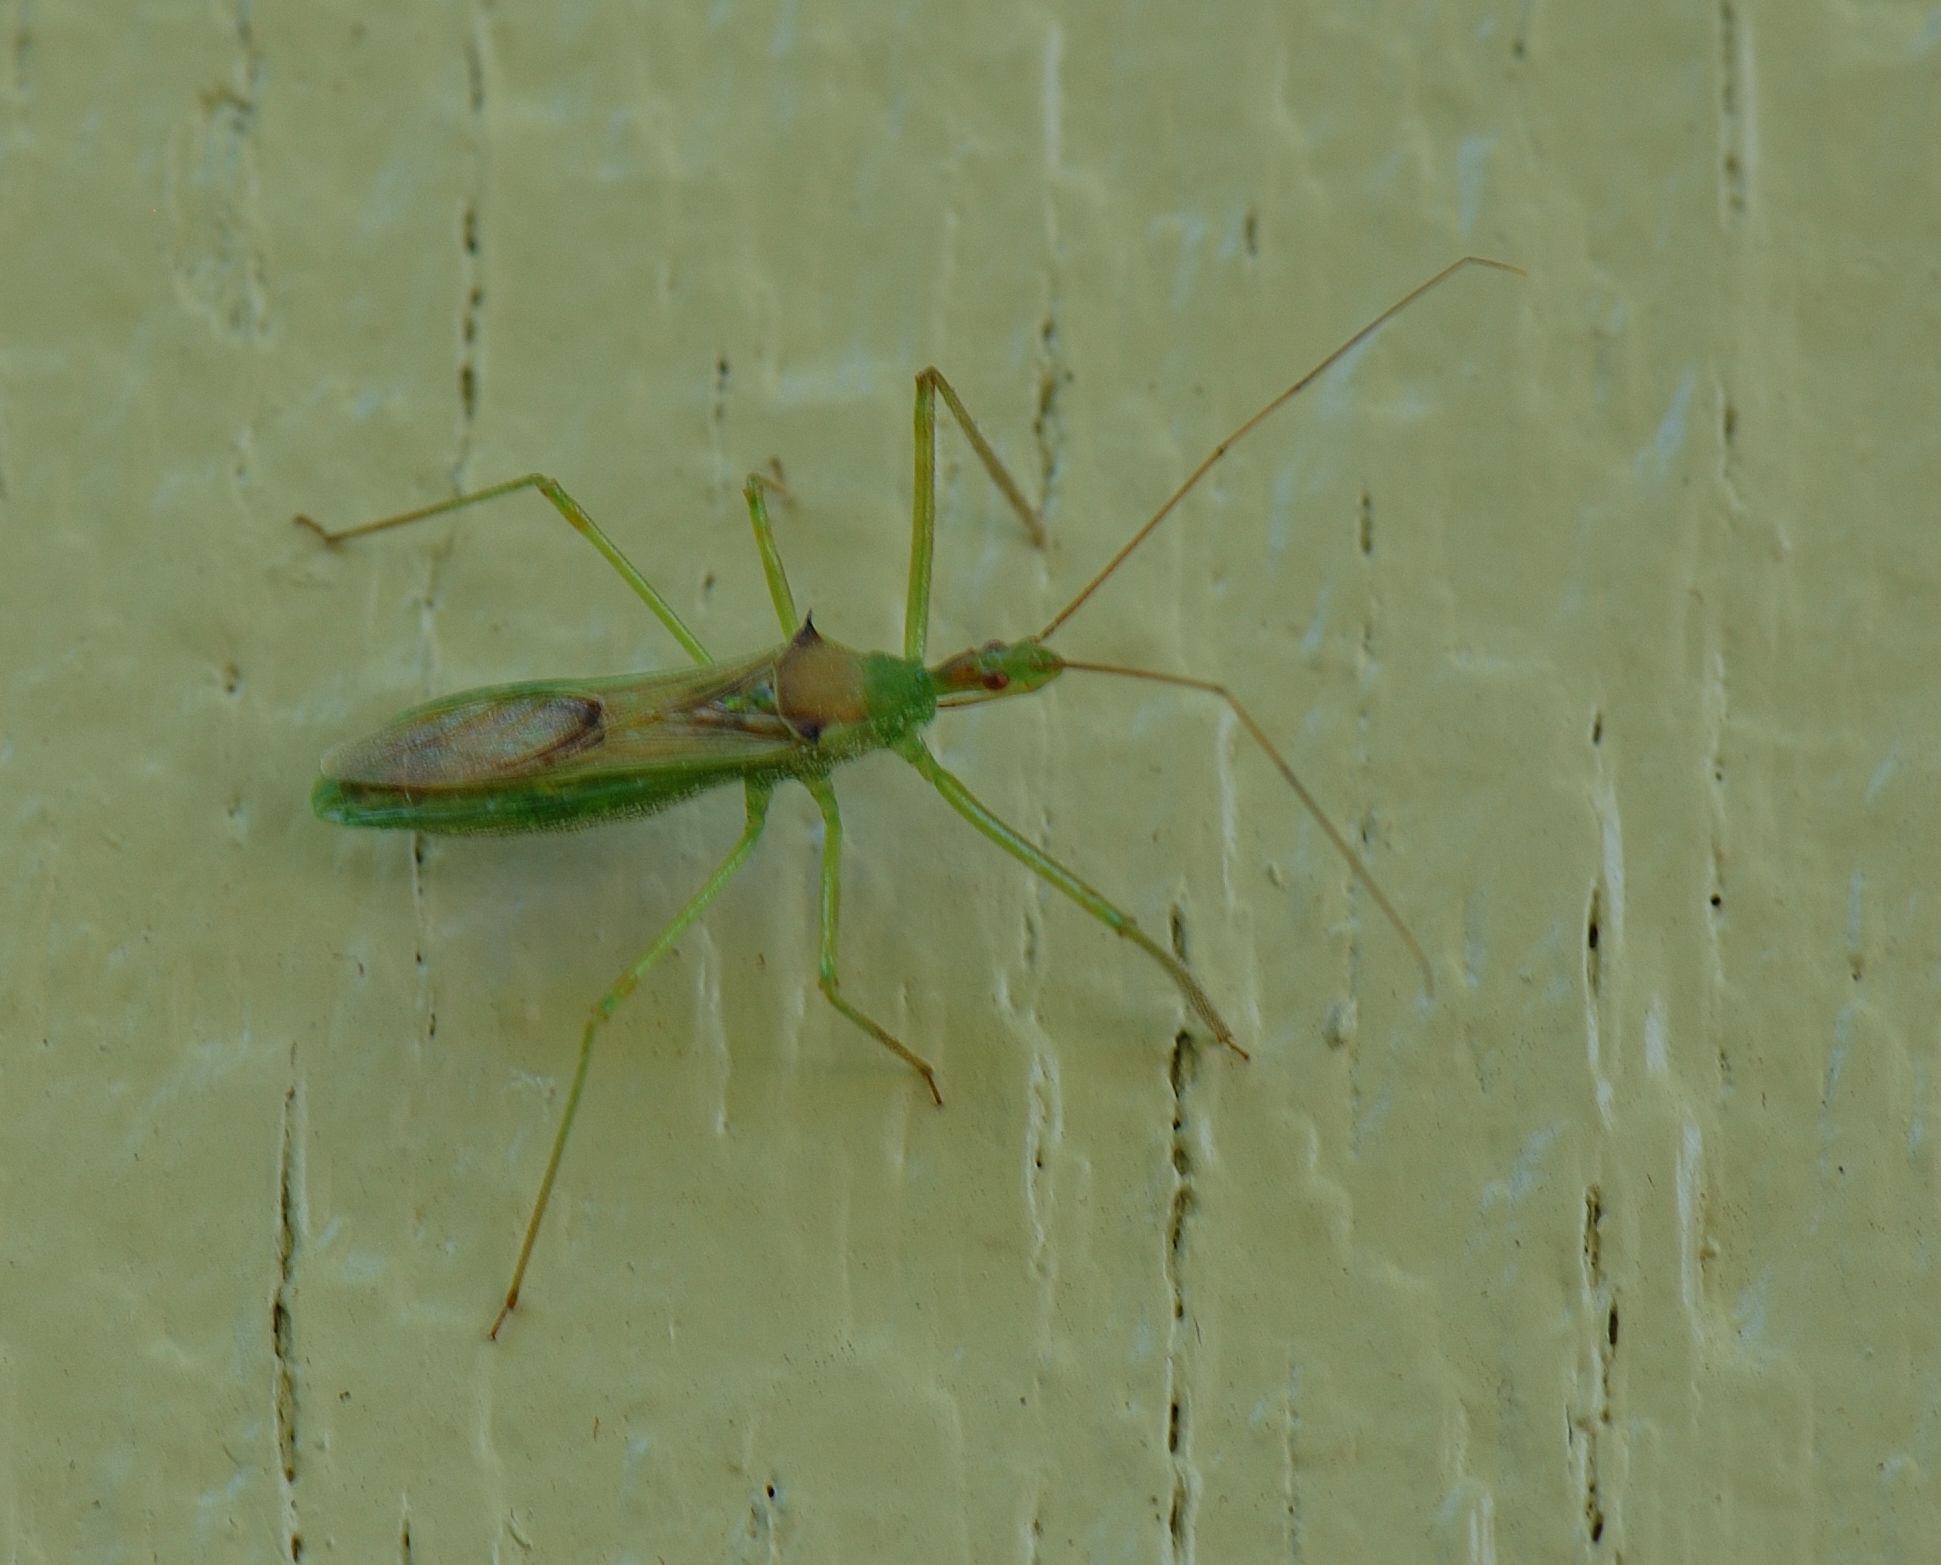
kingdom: Animalia
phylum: Arthropoda
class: Insecta
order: Hemiptera
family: Reduviidae
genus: Zelus
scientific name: Zelus luridus
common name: Pale green assassin bug
